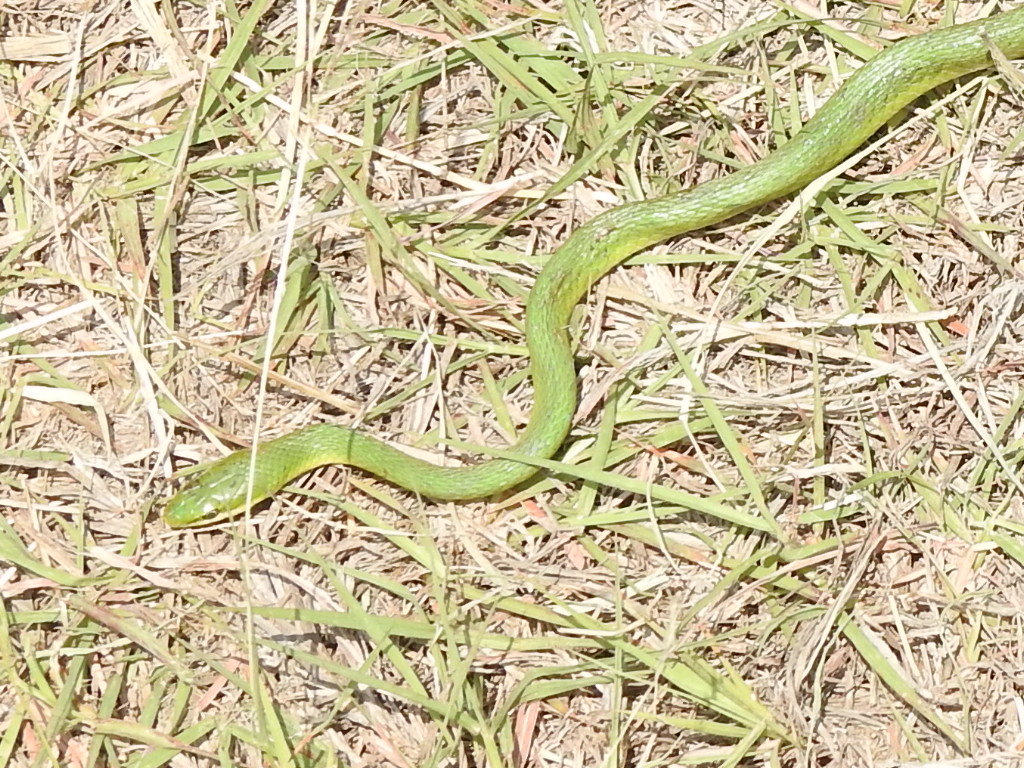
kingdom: Animalia
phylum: Chordata
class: Squamata
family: Colubridae
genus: Opheodrys
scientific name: Opheodrys aestivus
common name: Rough greensnake
